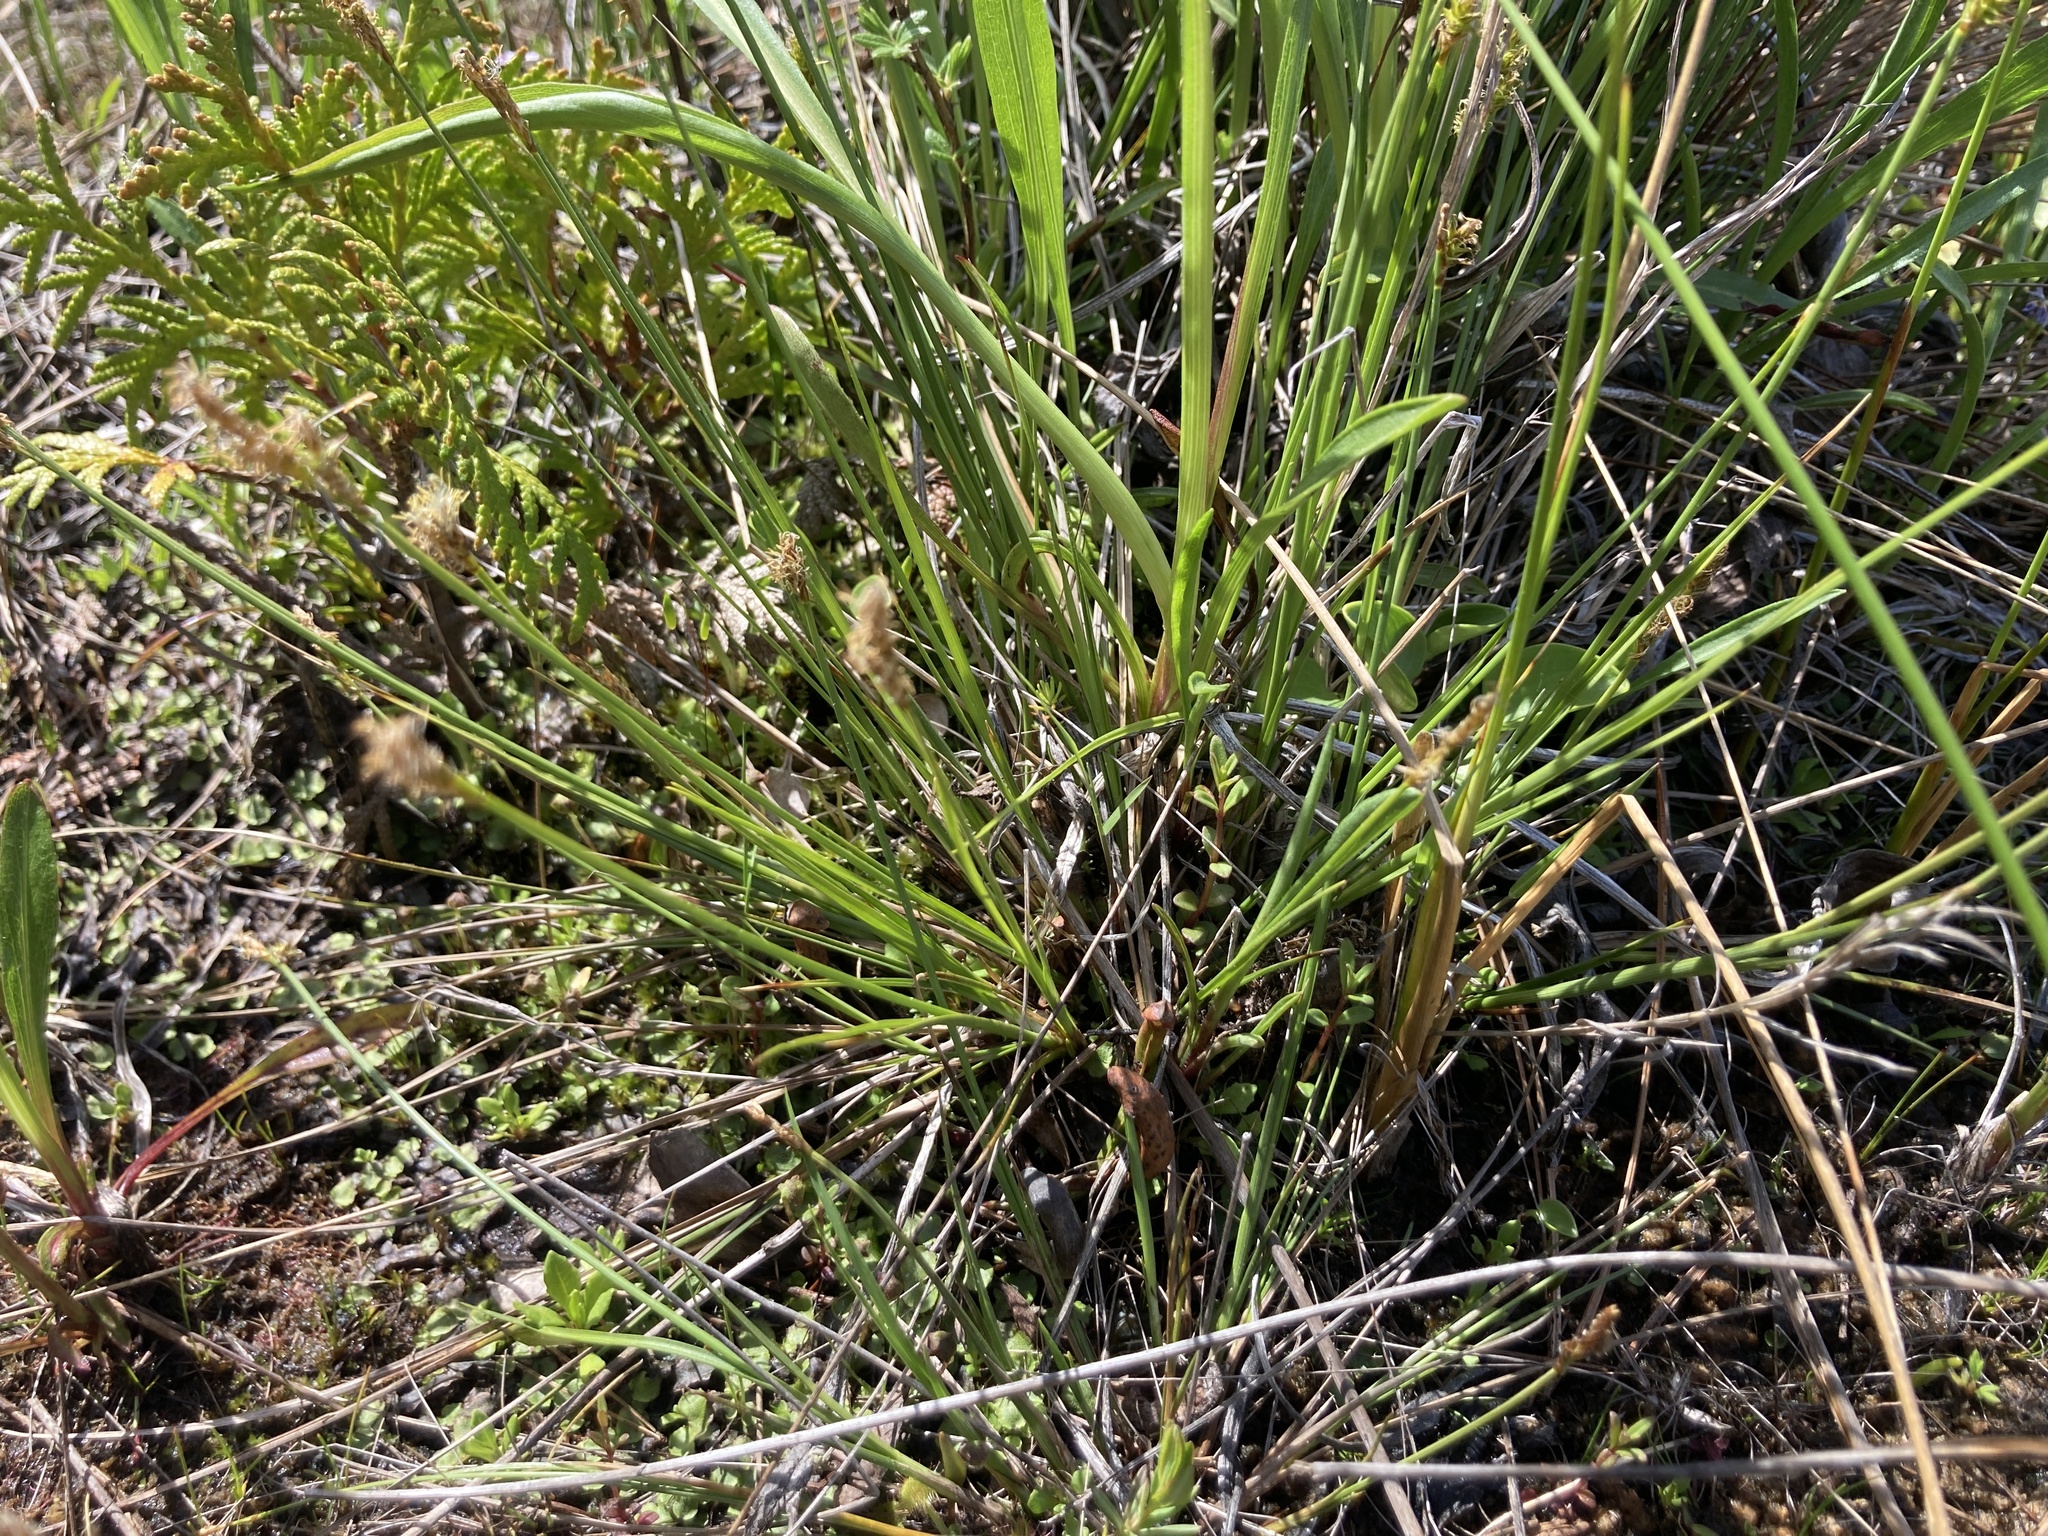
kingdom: Plantae
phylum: Tracheophyta
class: Liliopsida
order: Poales
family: Cyperaceae
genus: Carex
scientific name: Carex sterilis
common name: Dioecious sedge
